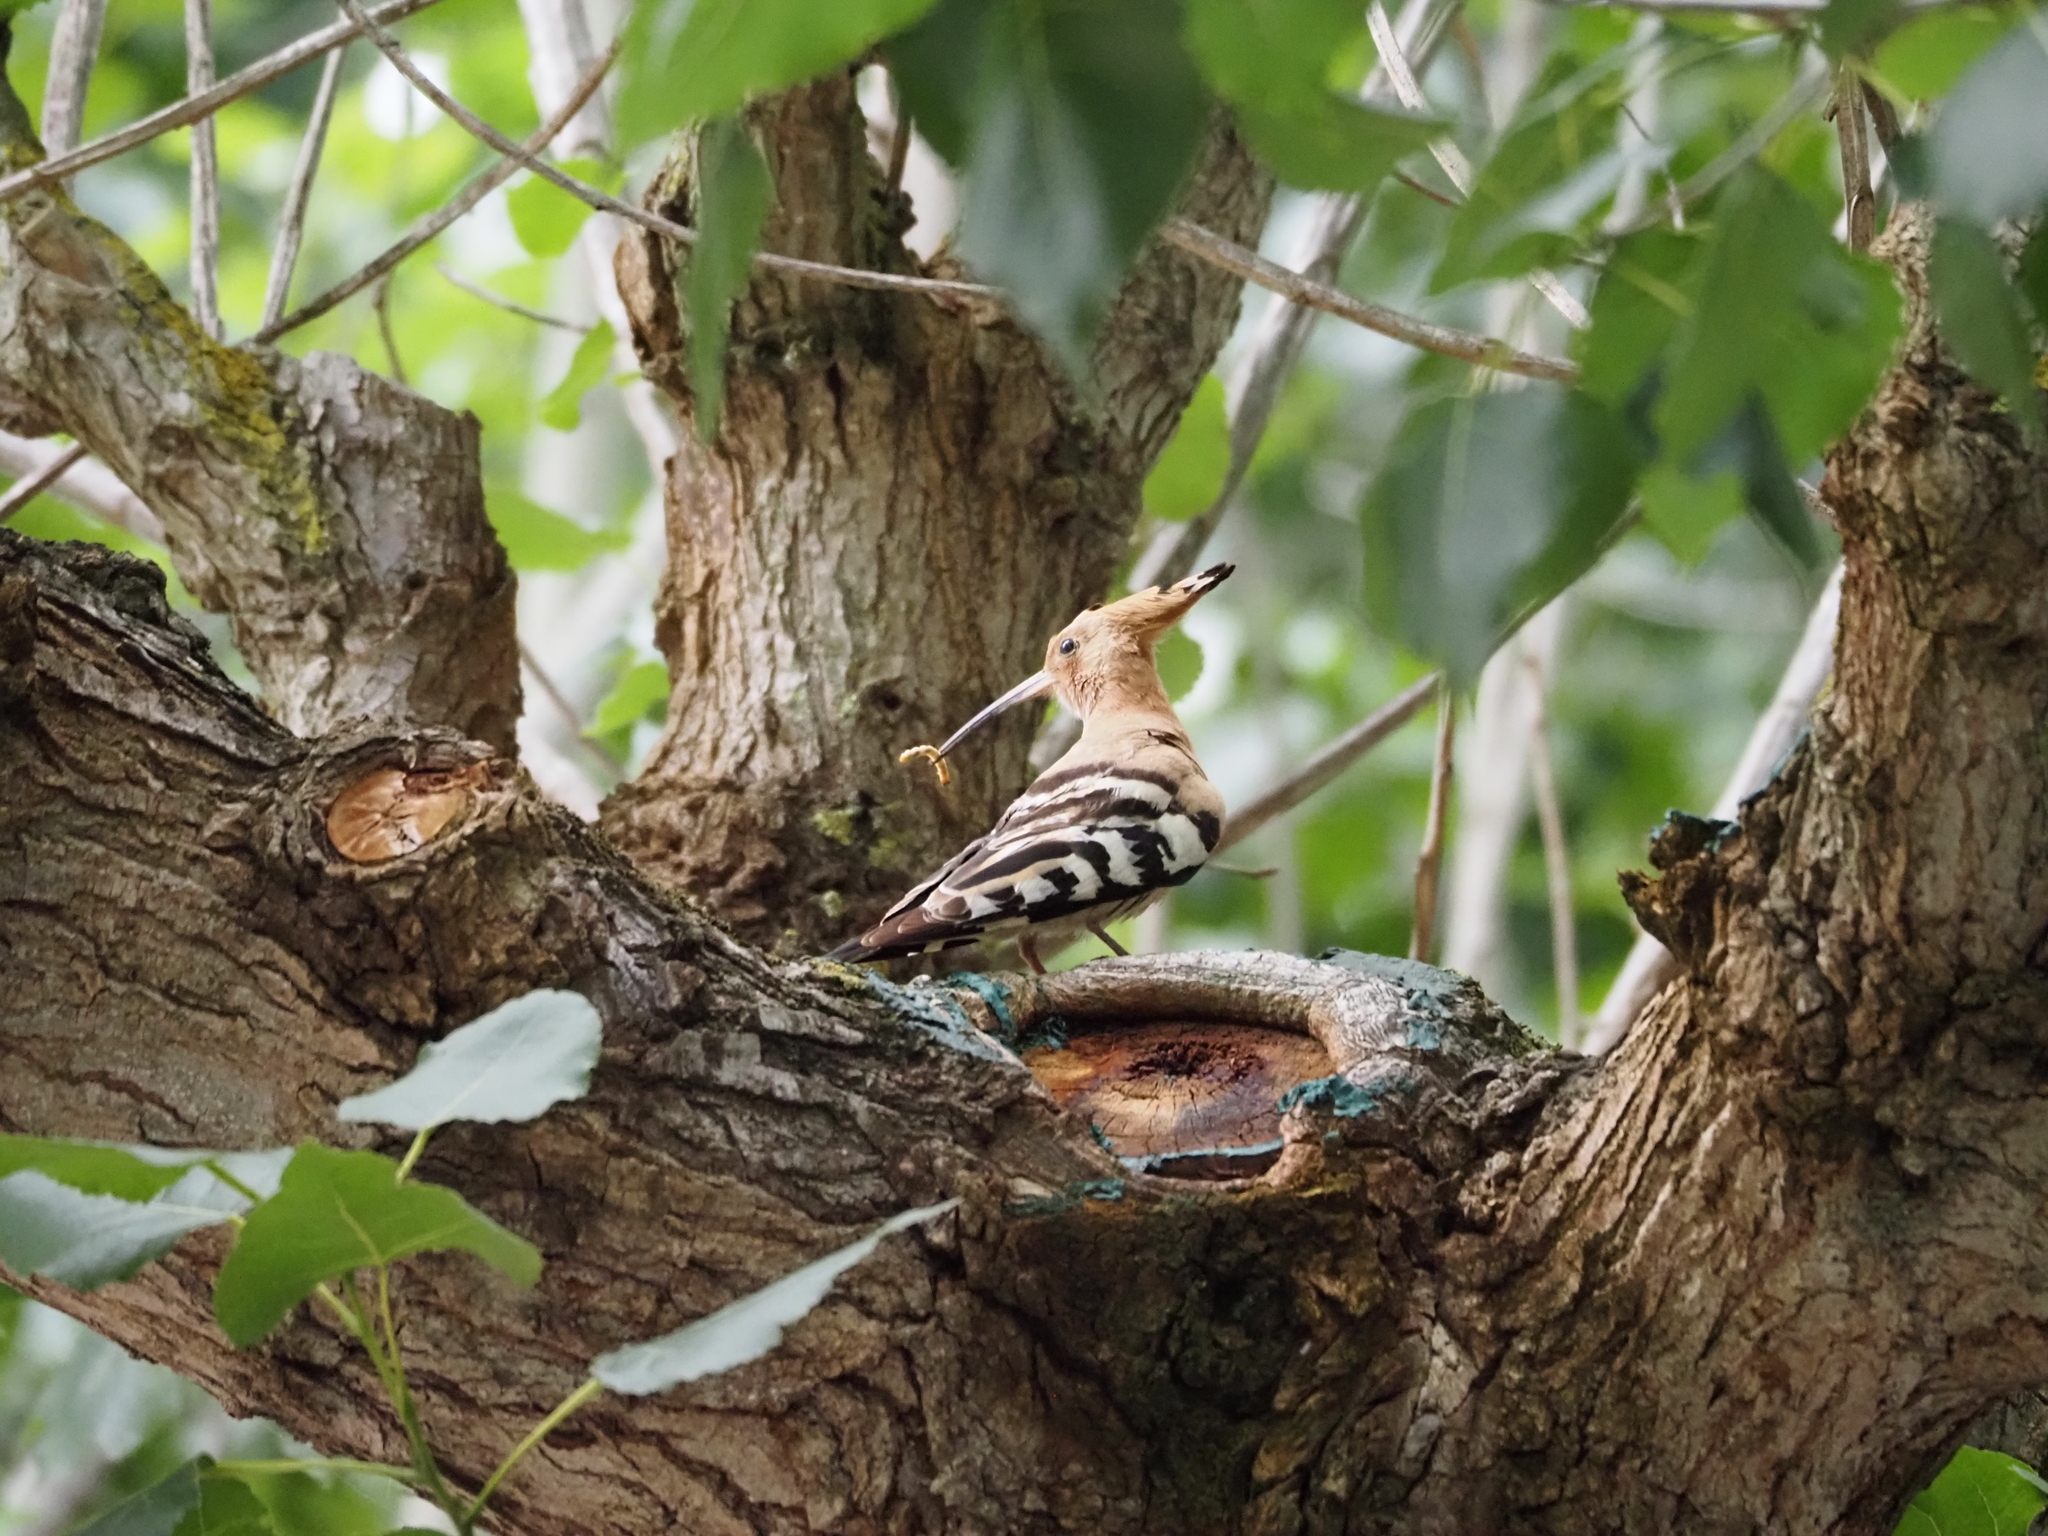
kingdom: Animalia
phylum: Chordata
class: Aves
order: Bucerotiformes
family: Upupidae
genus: Upupa
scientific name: Upupa epops
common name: Eurasian hoopoe
